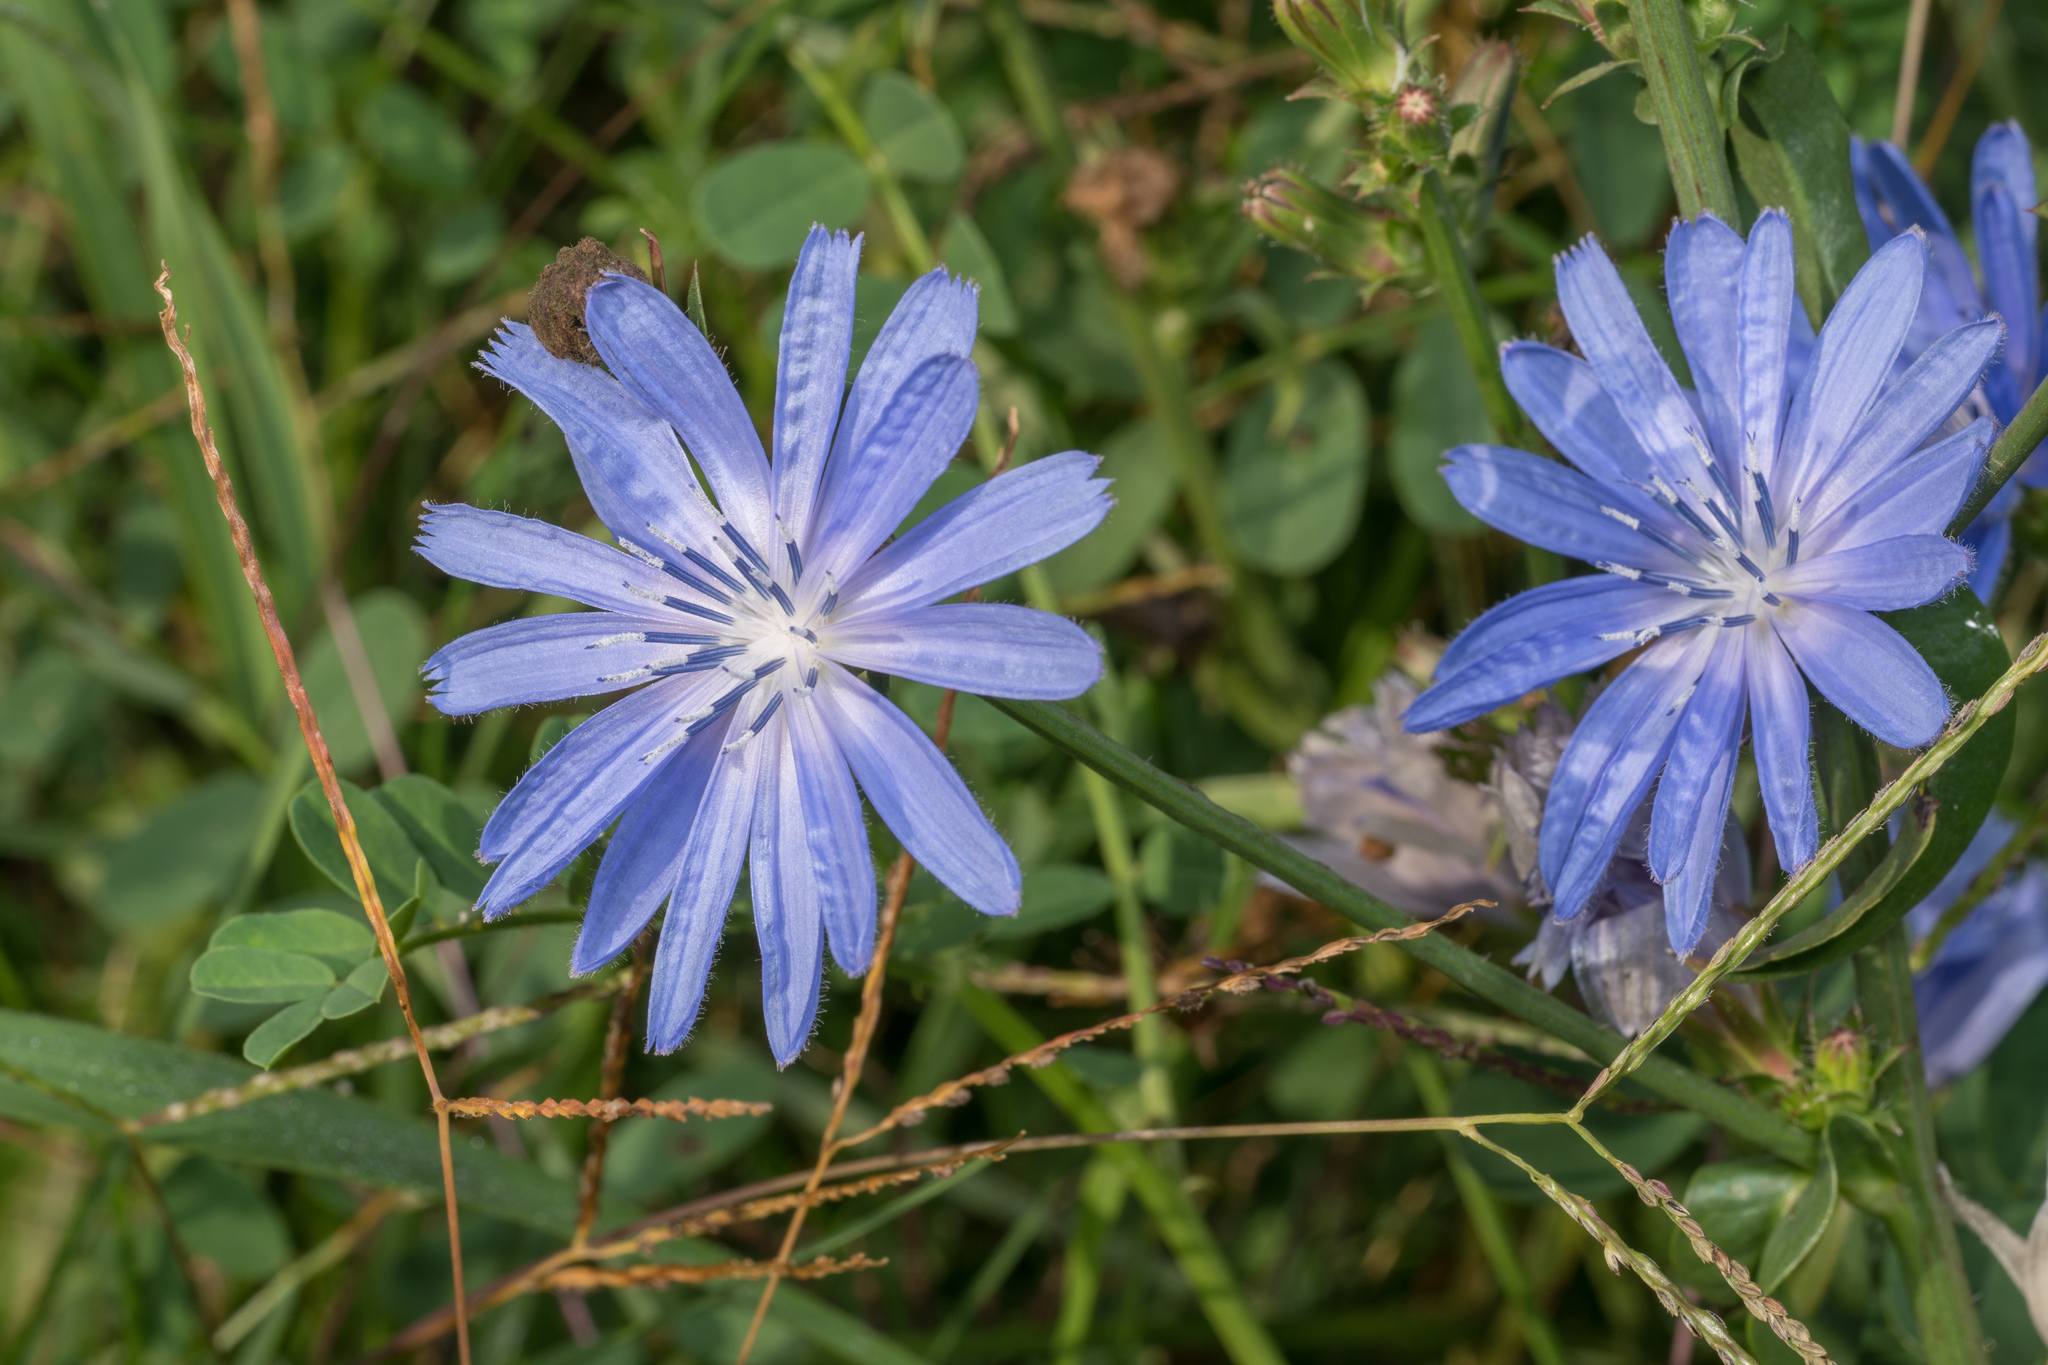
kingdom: Plantae
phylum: Tracheophyta
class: Magnoliopsida
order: Asterales
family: Asteraceae
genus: Cichorium
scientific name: Cichorium intybus
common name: Chicory
